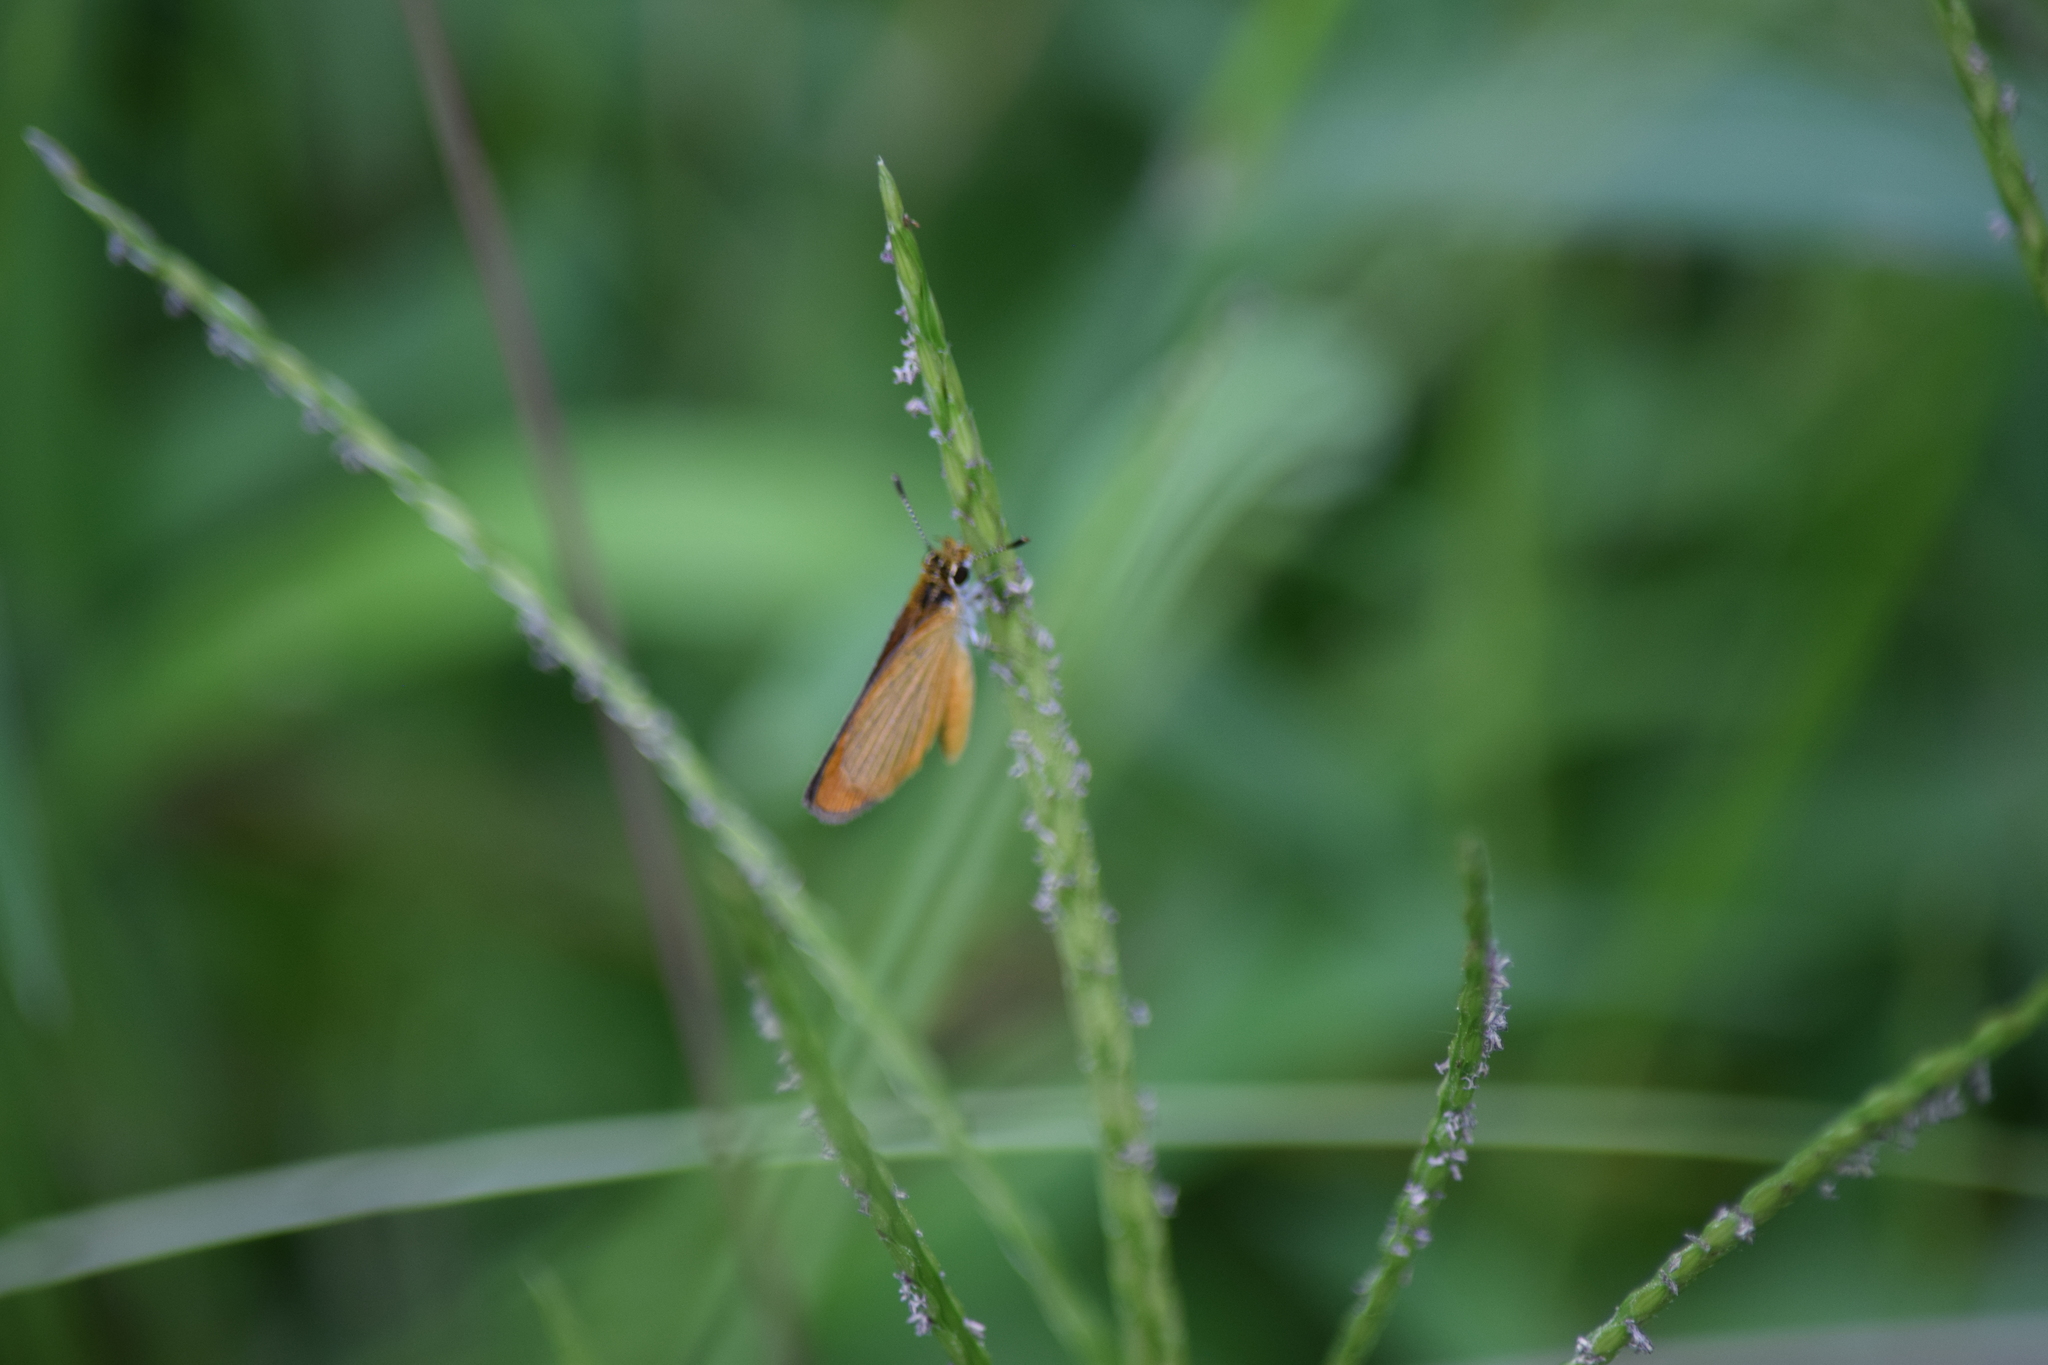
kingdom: Animalia
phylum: Arthropoda
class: Insecta
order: Lepidoptera
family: Hesperiidae
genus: Ancyloxypha
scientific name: Ancyloxypha numitor
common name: Least skipper
